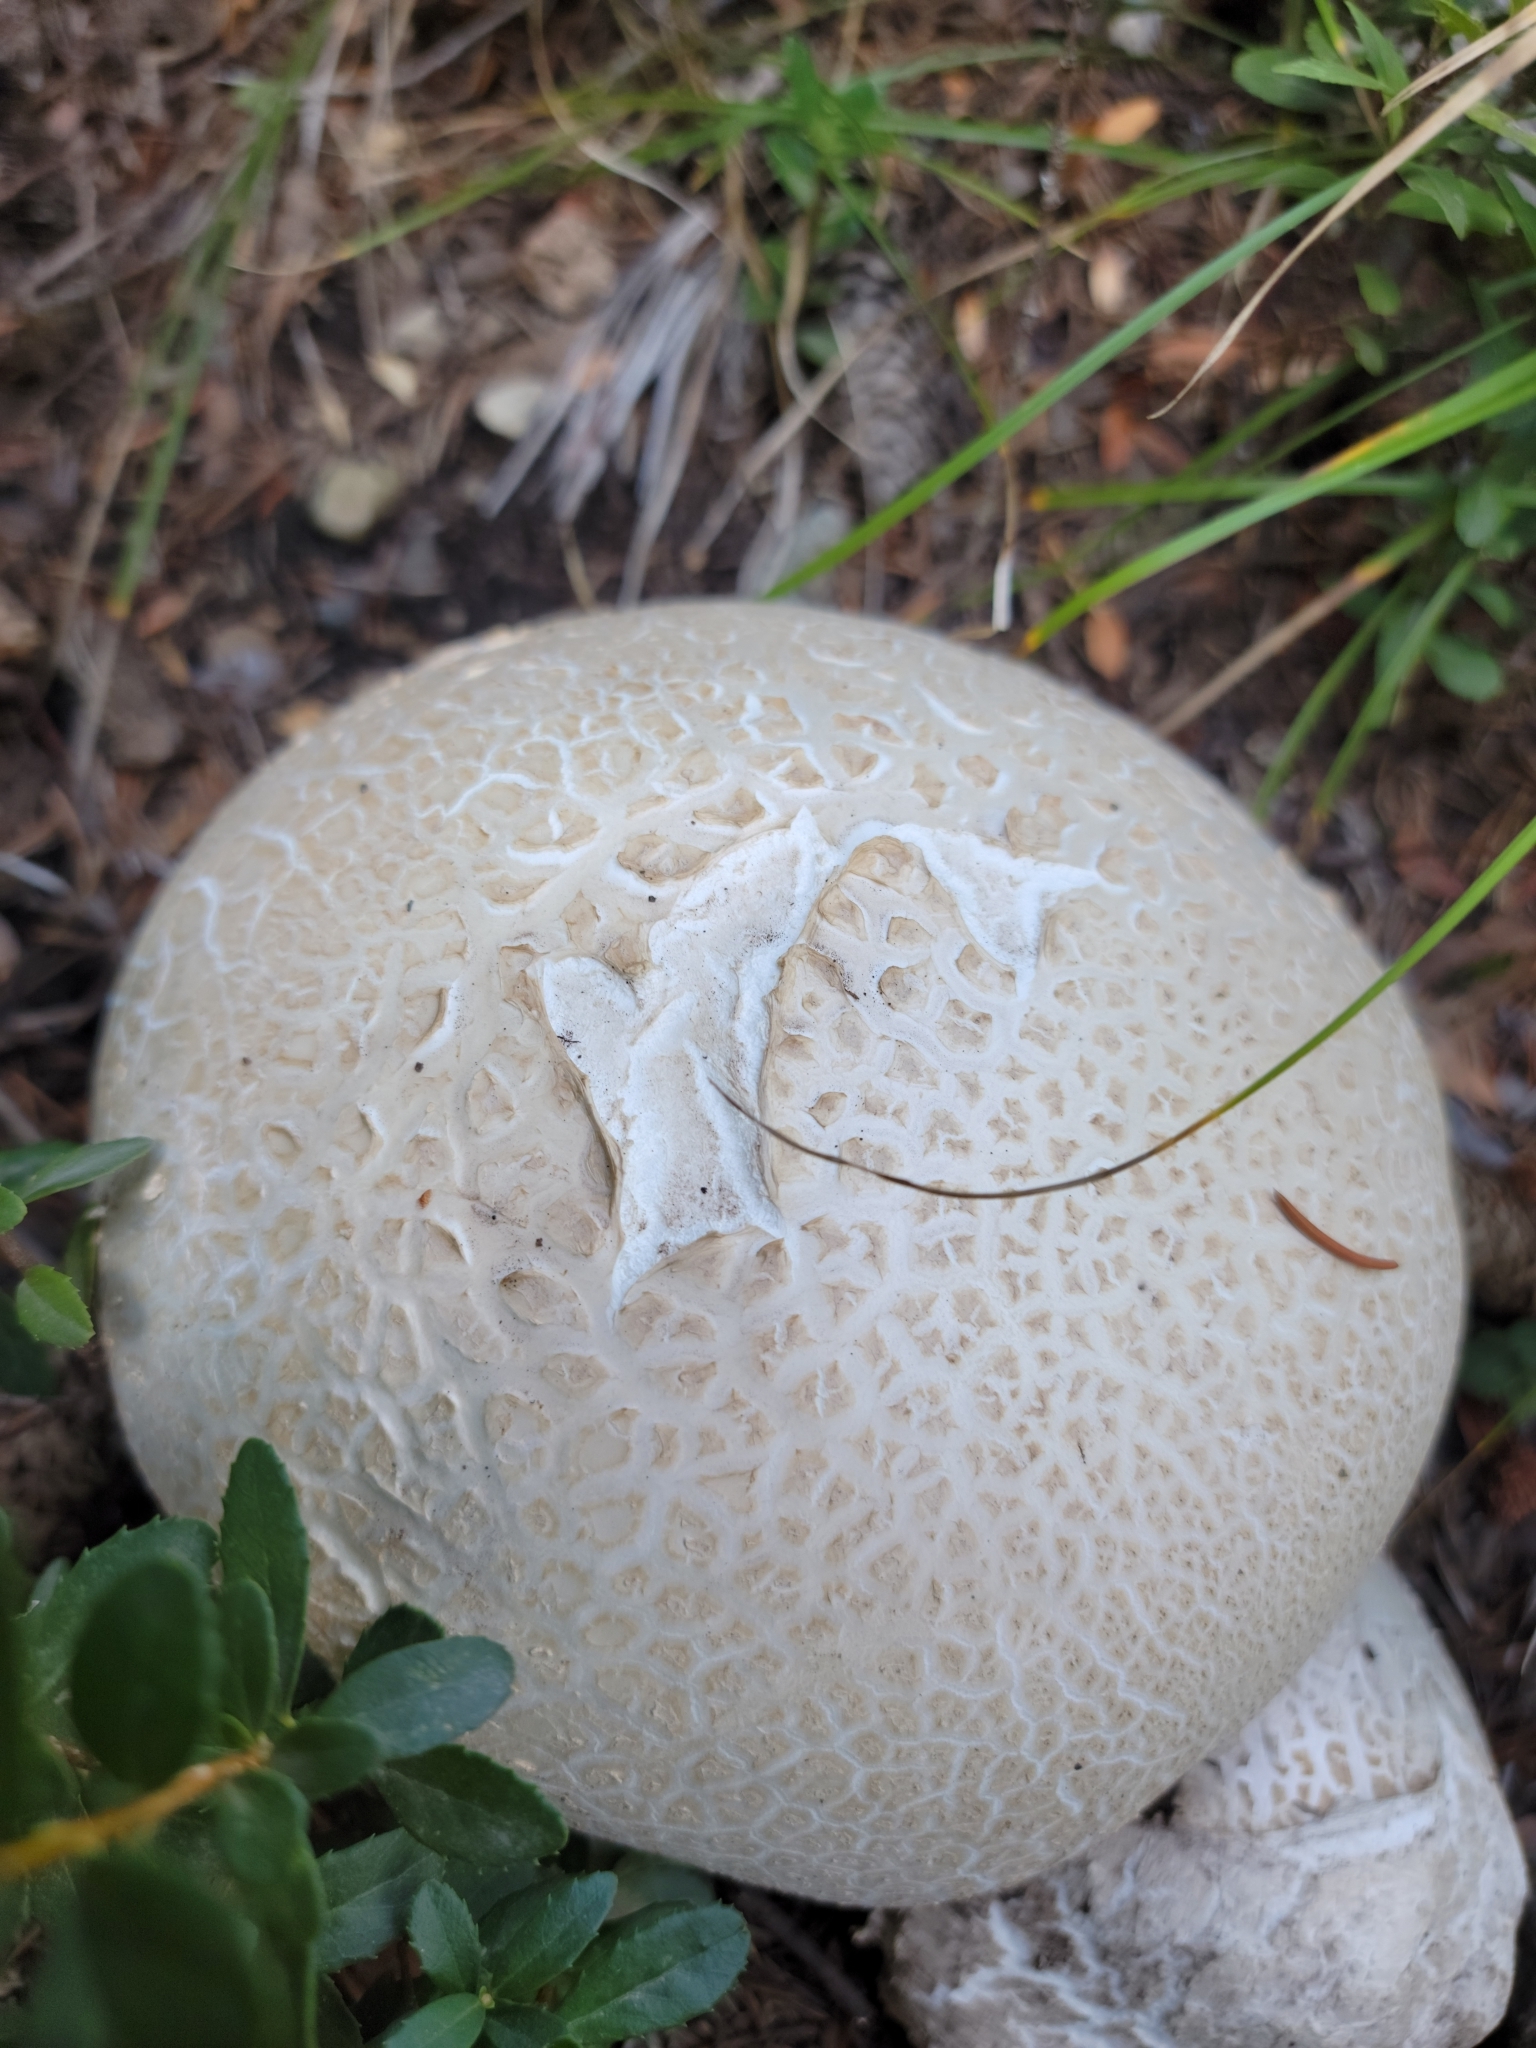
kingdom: Fungi
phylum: Basidiomycota
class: Agaricomycetes
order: Agaricales
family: Lycoperdaceae
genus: Calvatia
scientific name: Calvatia booniana
